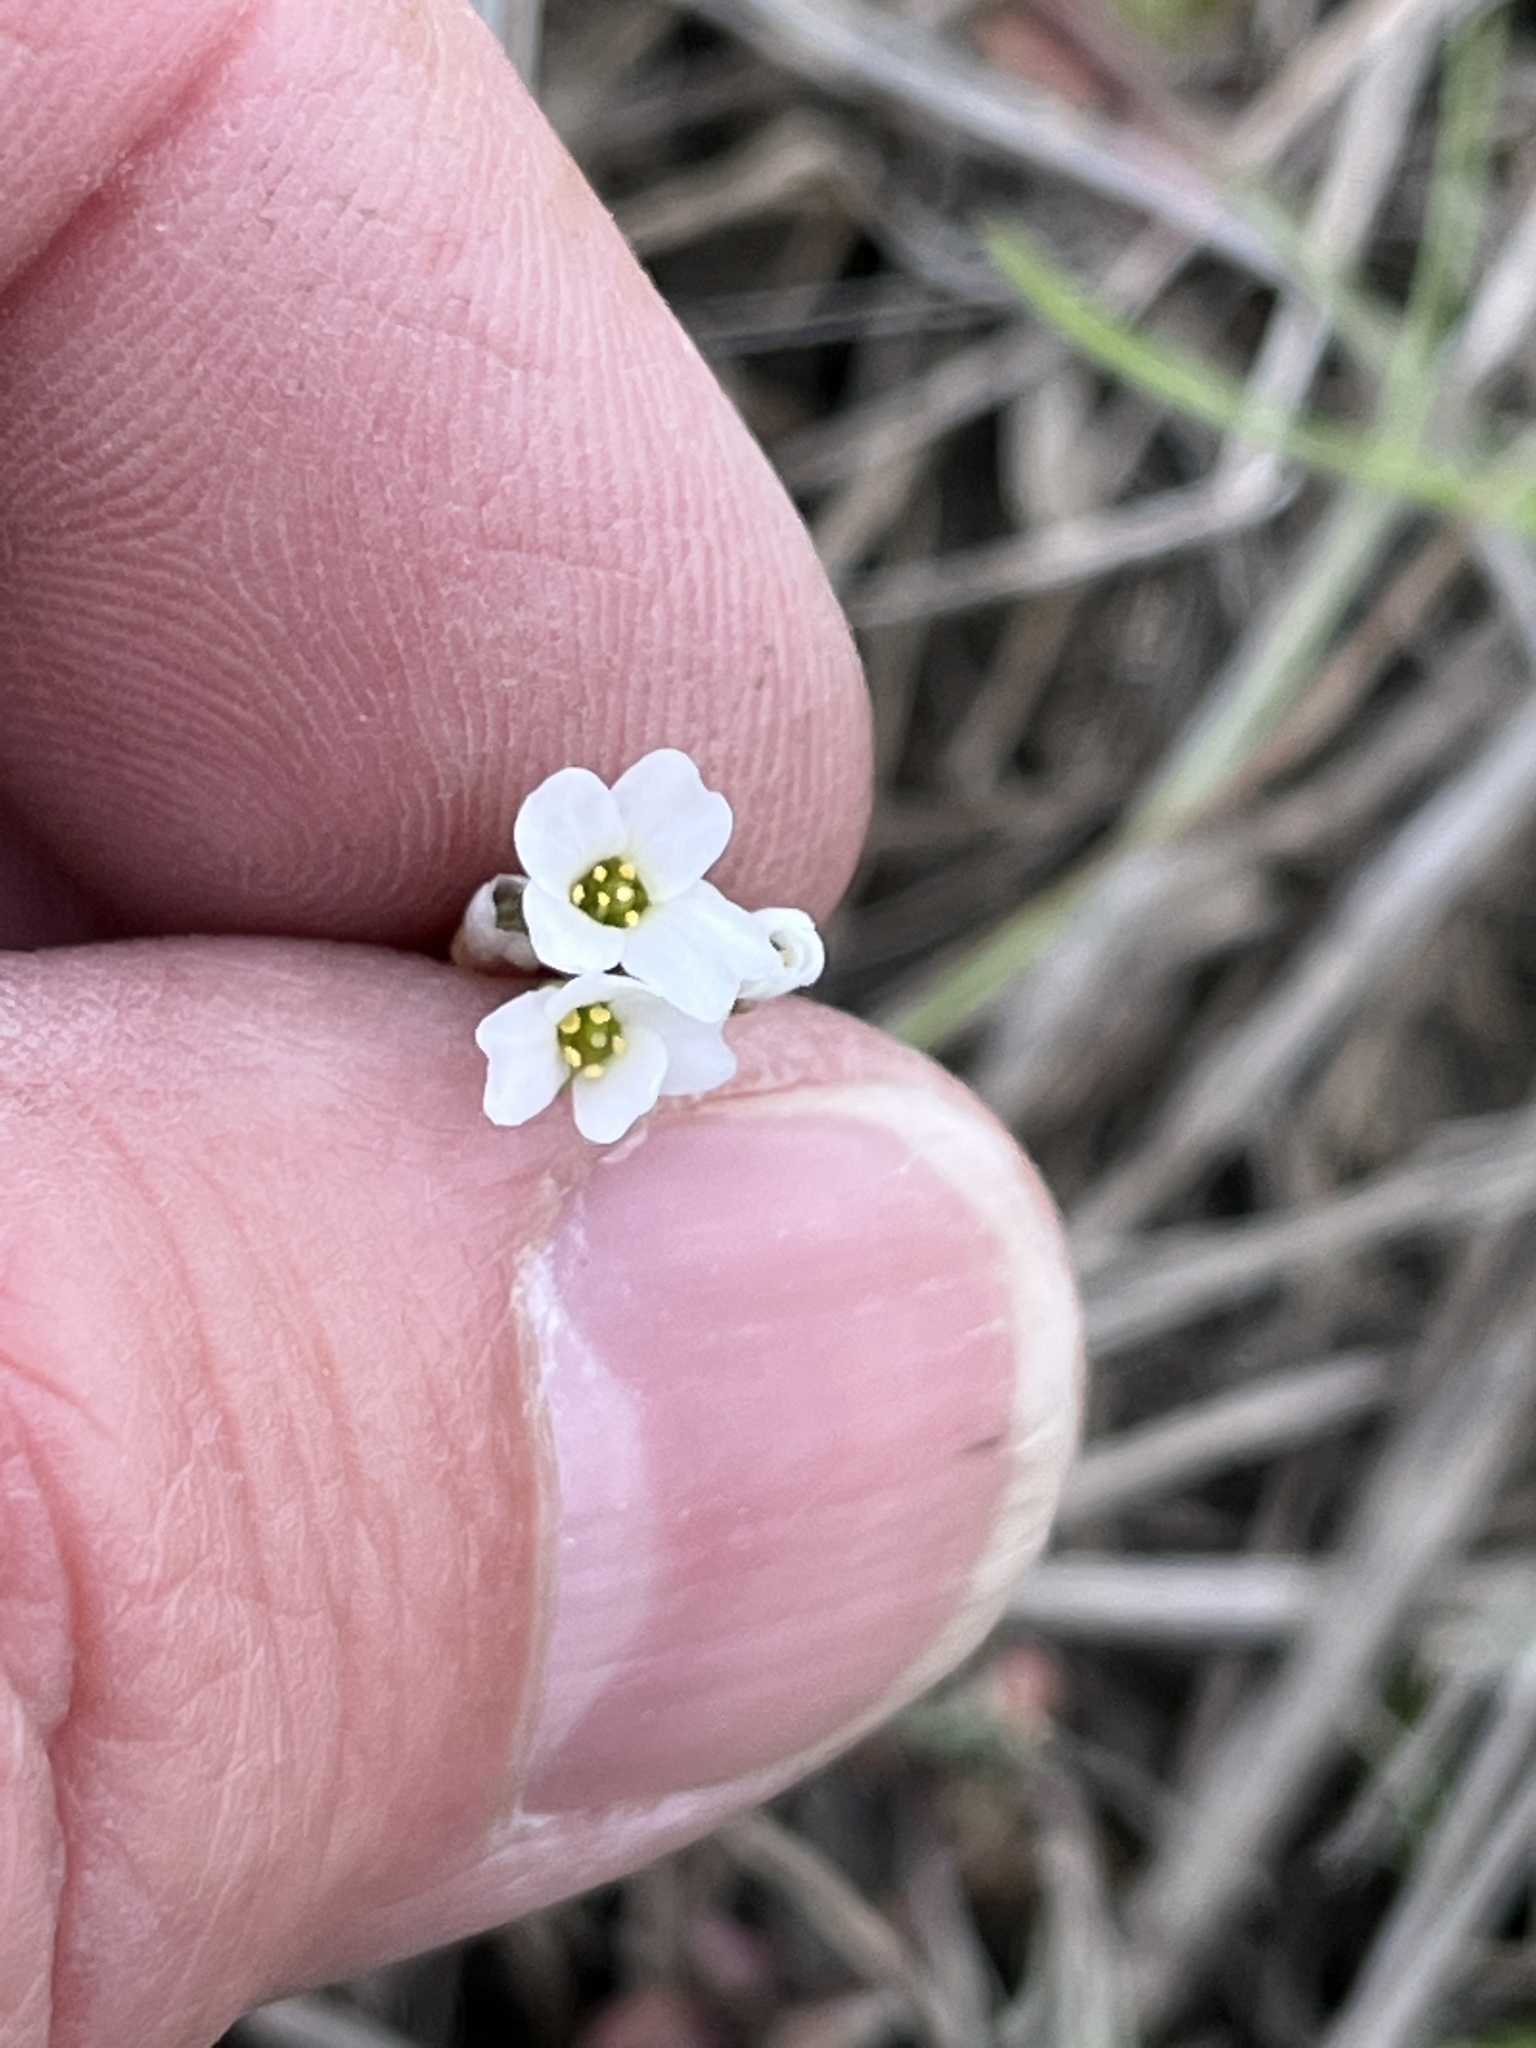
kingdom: Plantae
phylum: Tracheophyta
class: Magnoliopsida
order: Brassicales
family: Brassicaceae
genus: Tomostima
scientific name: Tomostima reptans
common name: Carolina draba
